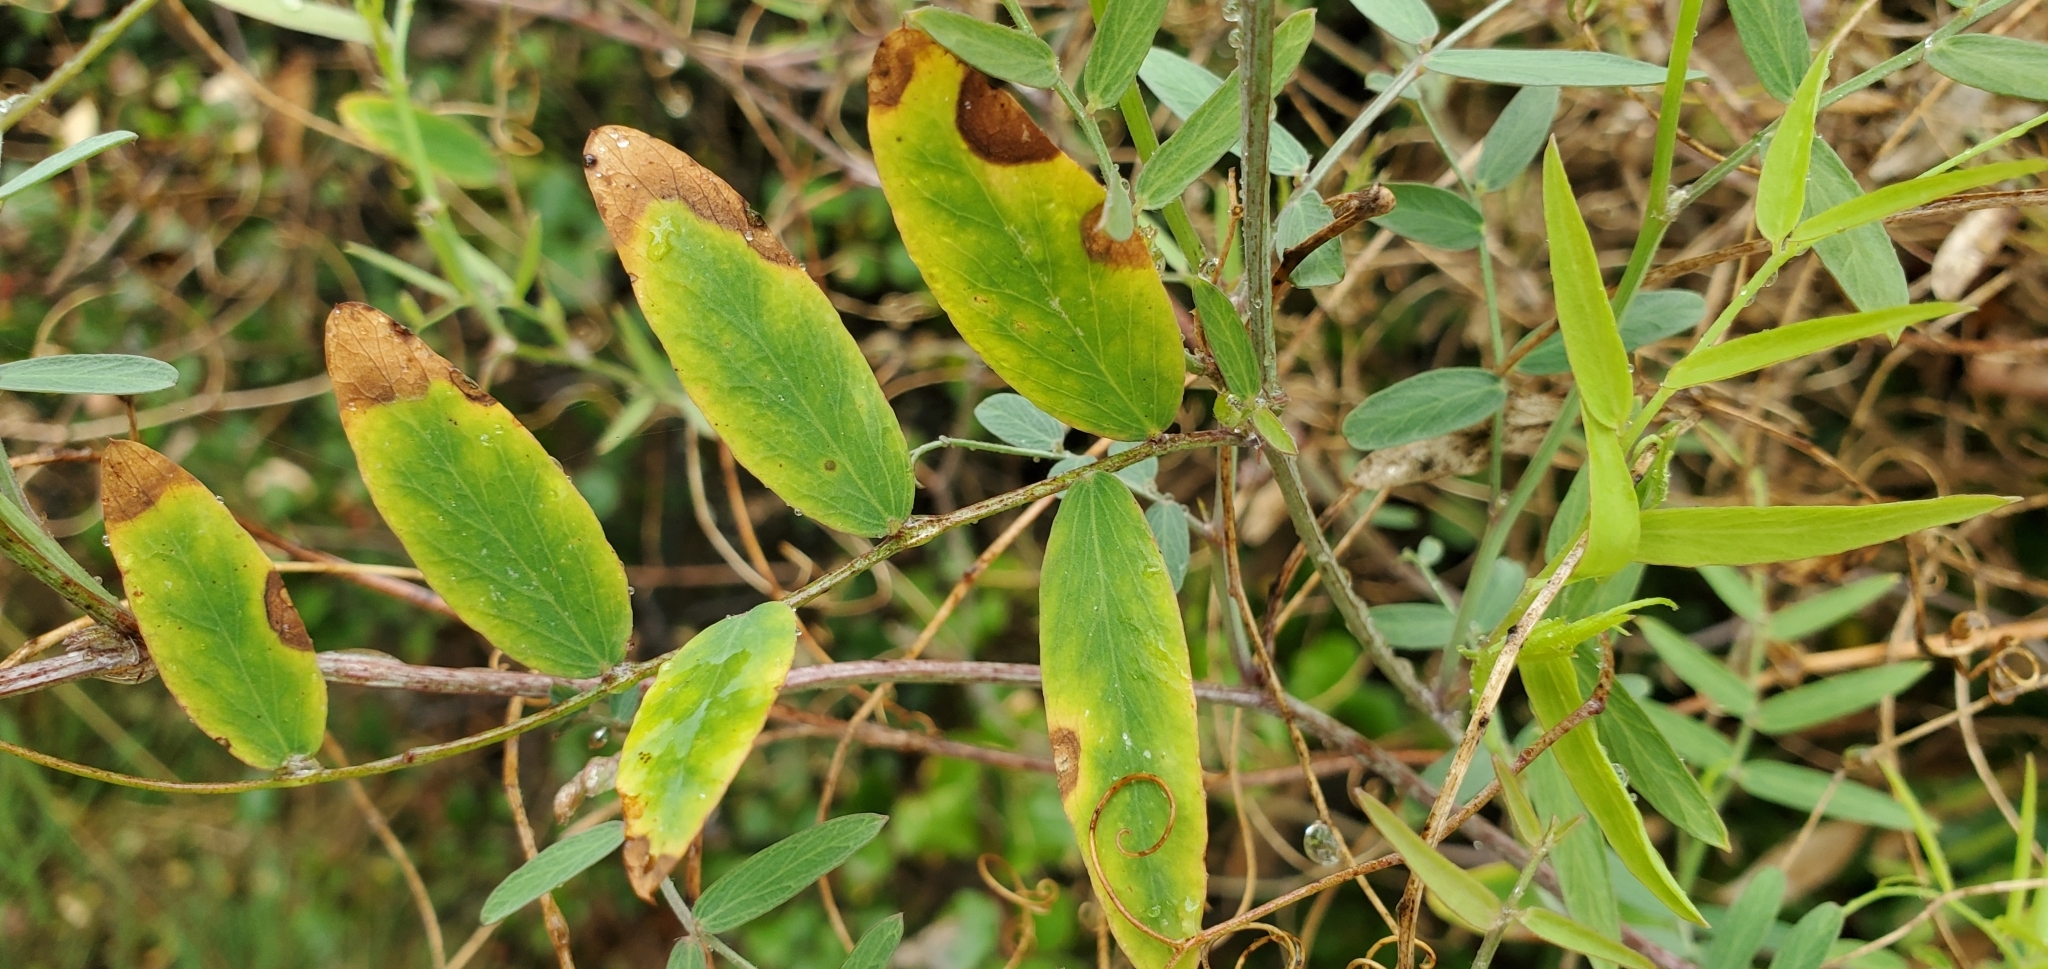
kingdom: Plantae
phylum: Tracheophyta
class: Magnoliopsida
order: Fabales
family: Fabaceae
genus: Lathyrus
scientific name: Lathyrus vestitus
